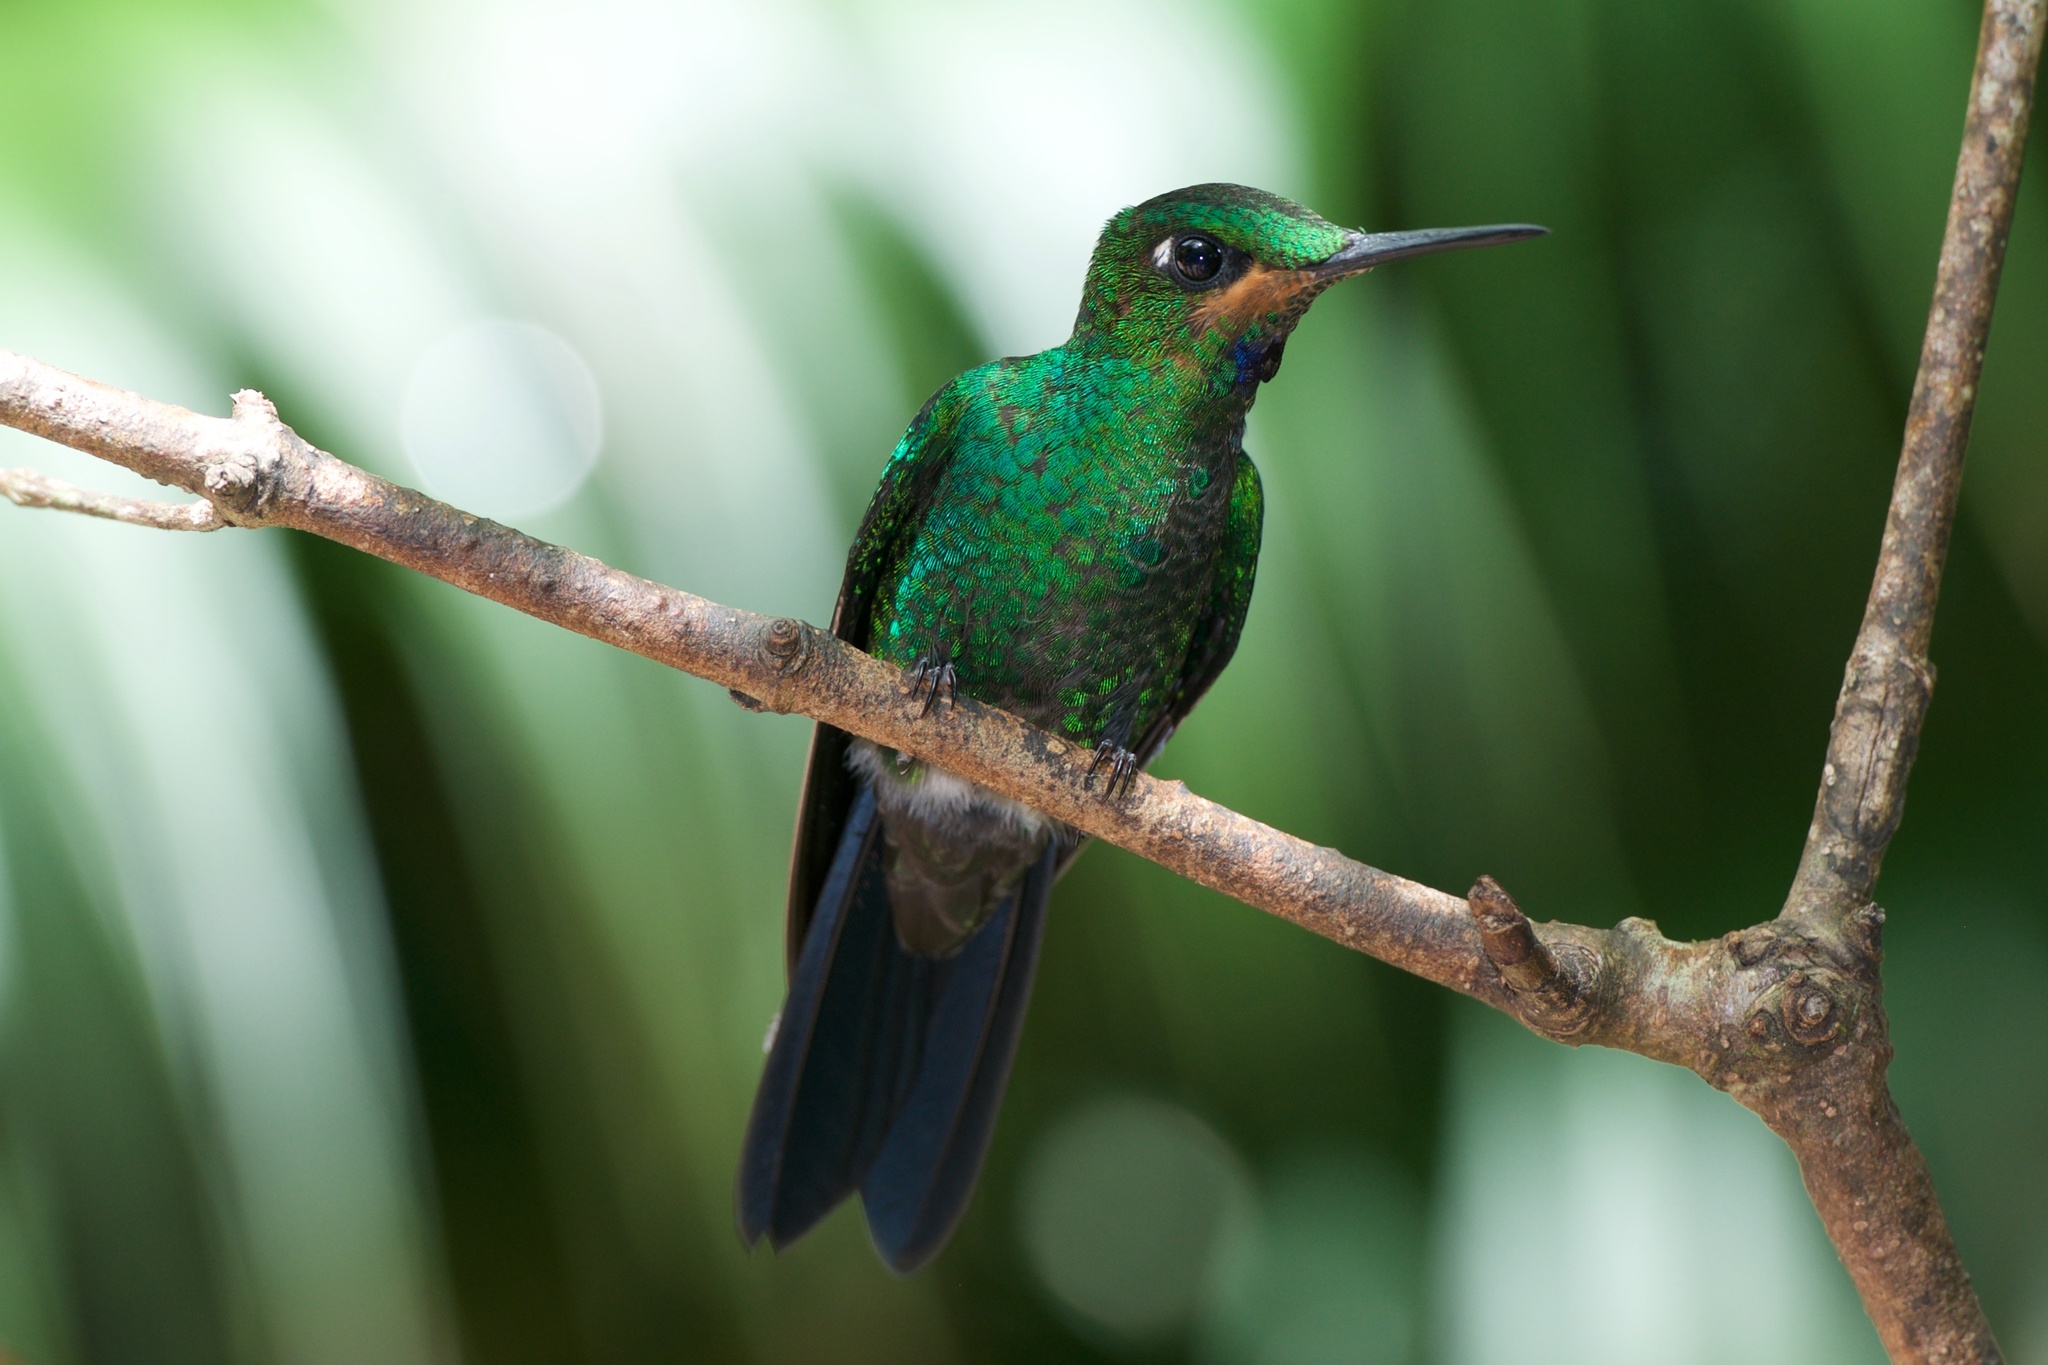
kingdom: Animalia
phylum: Chordata
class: Aves
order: Apodiformes
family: Trochilidae
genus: Heliodoxa
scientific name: Heliodoxa jacula
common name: Green-crowned brilliant
